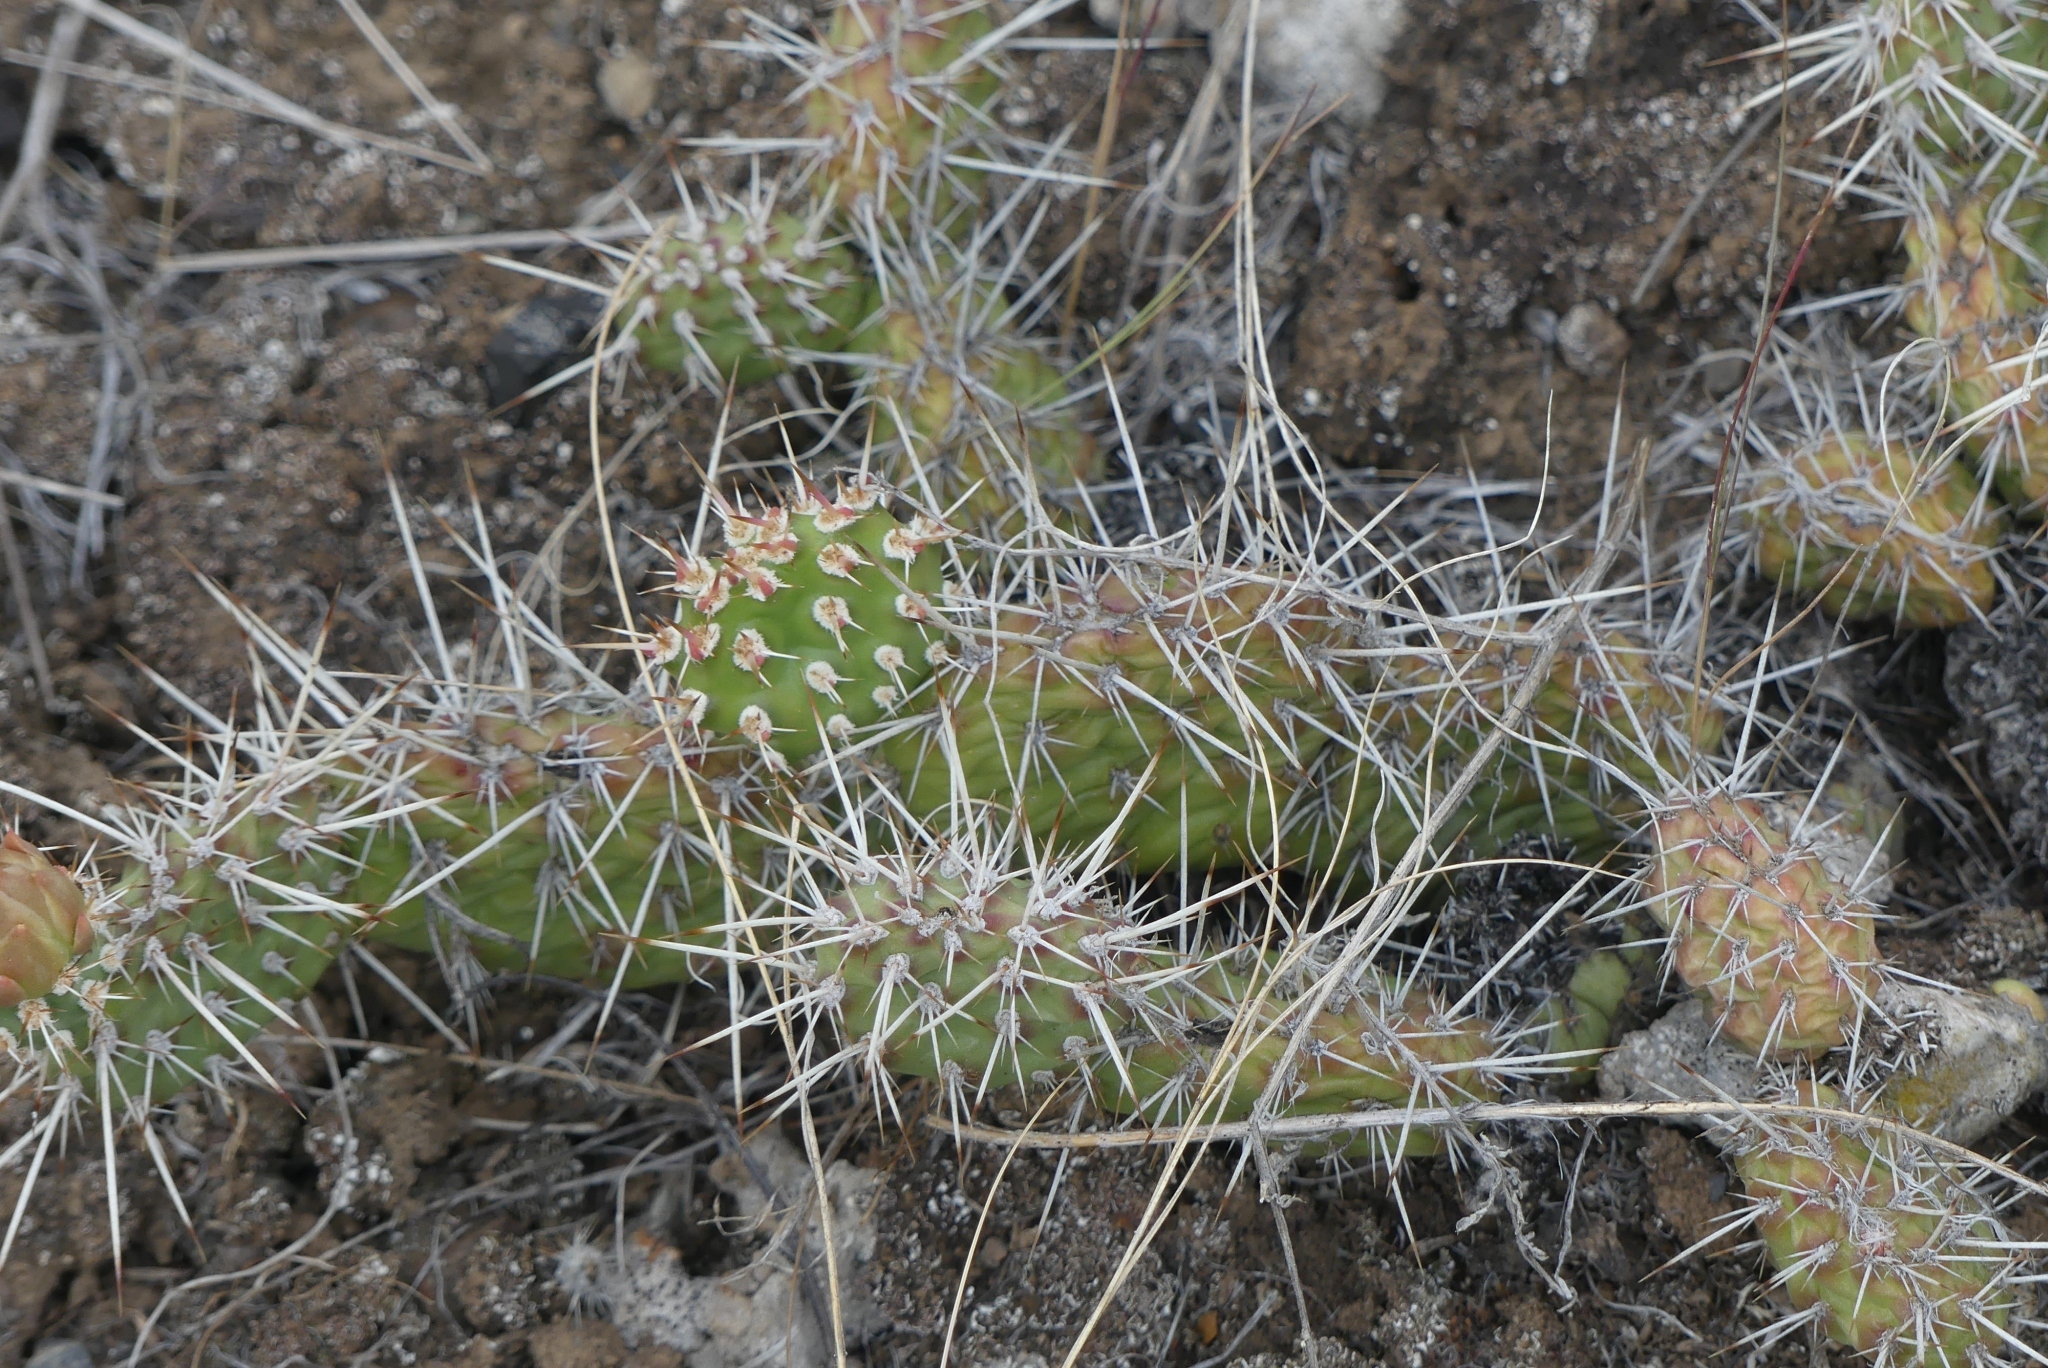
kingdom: Plantae
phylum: Tracheophyta
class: Magnoliopsida
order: Caryophyllales
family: Cactaceae
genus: Opuntia
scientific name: Opuntia columbiana
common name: Columbia prickly-pear
